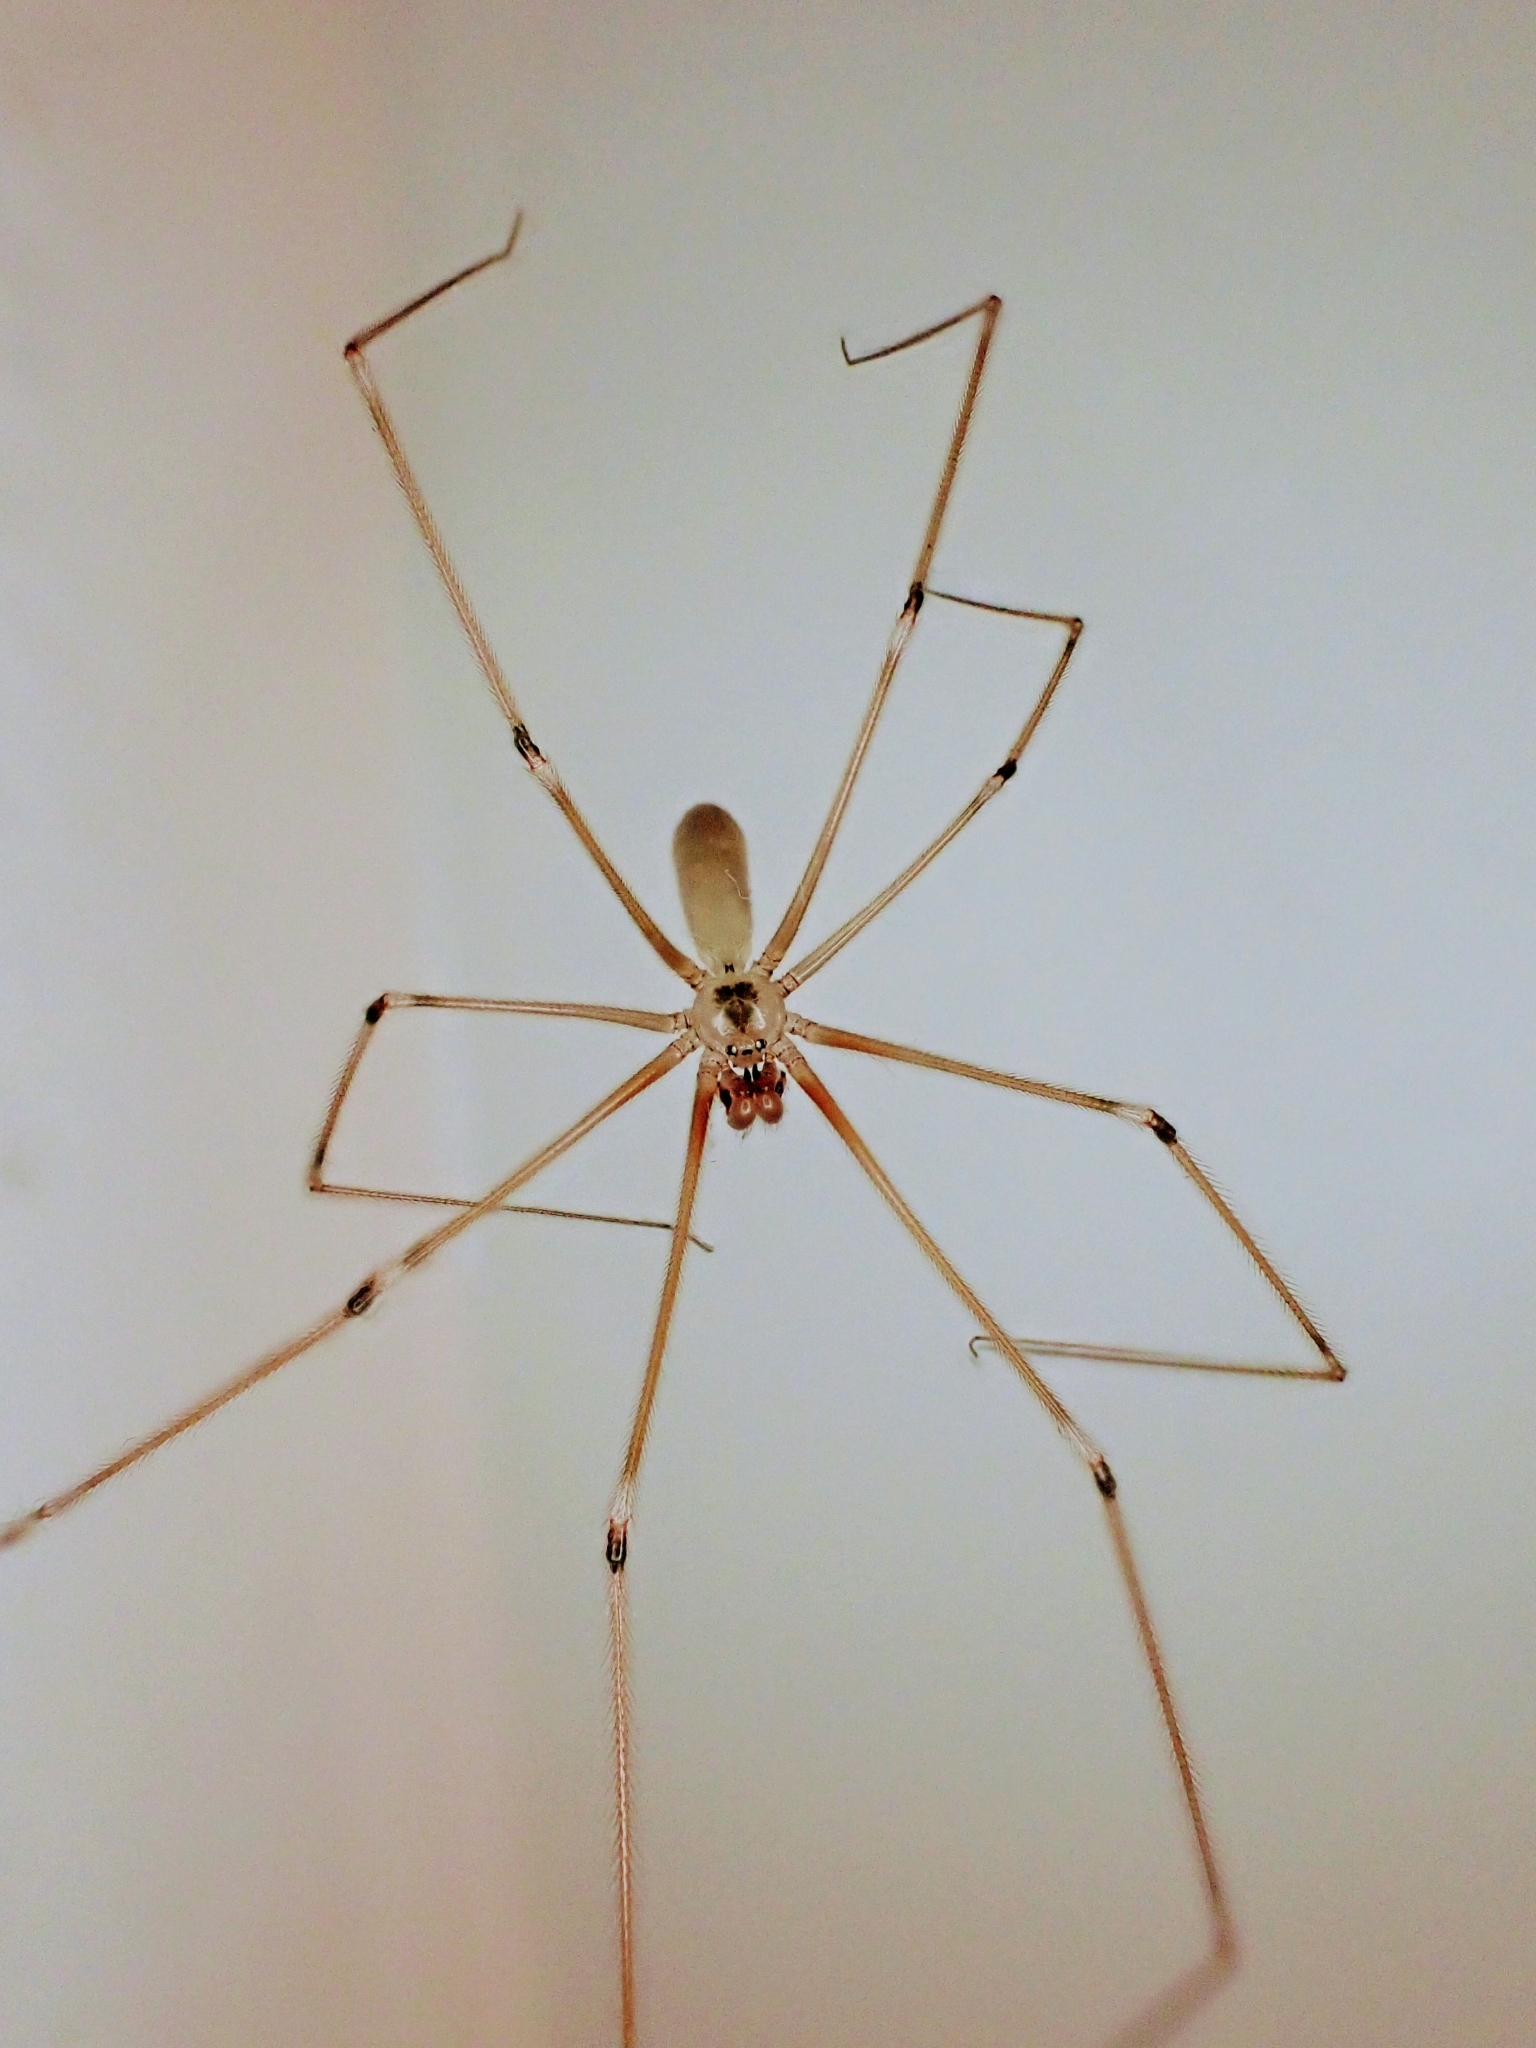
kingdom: Animalia
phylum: Arthropoda
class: Arachnida
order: Araneae
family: Pholcidae
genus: Pholcus
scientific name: Pholcus phalangioides
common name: Longbodied cellar spider
